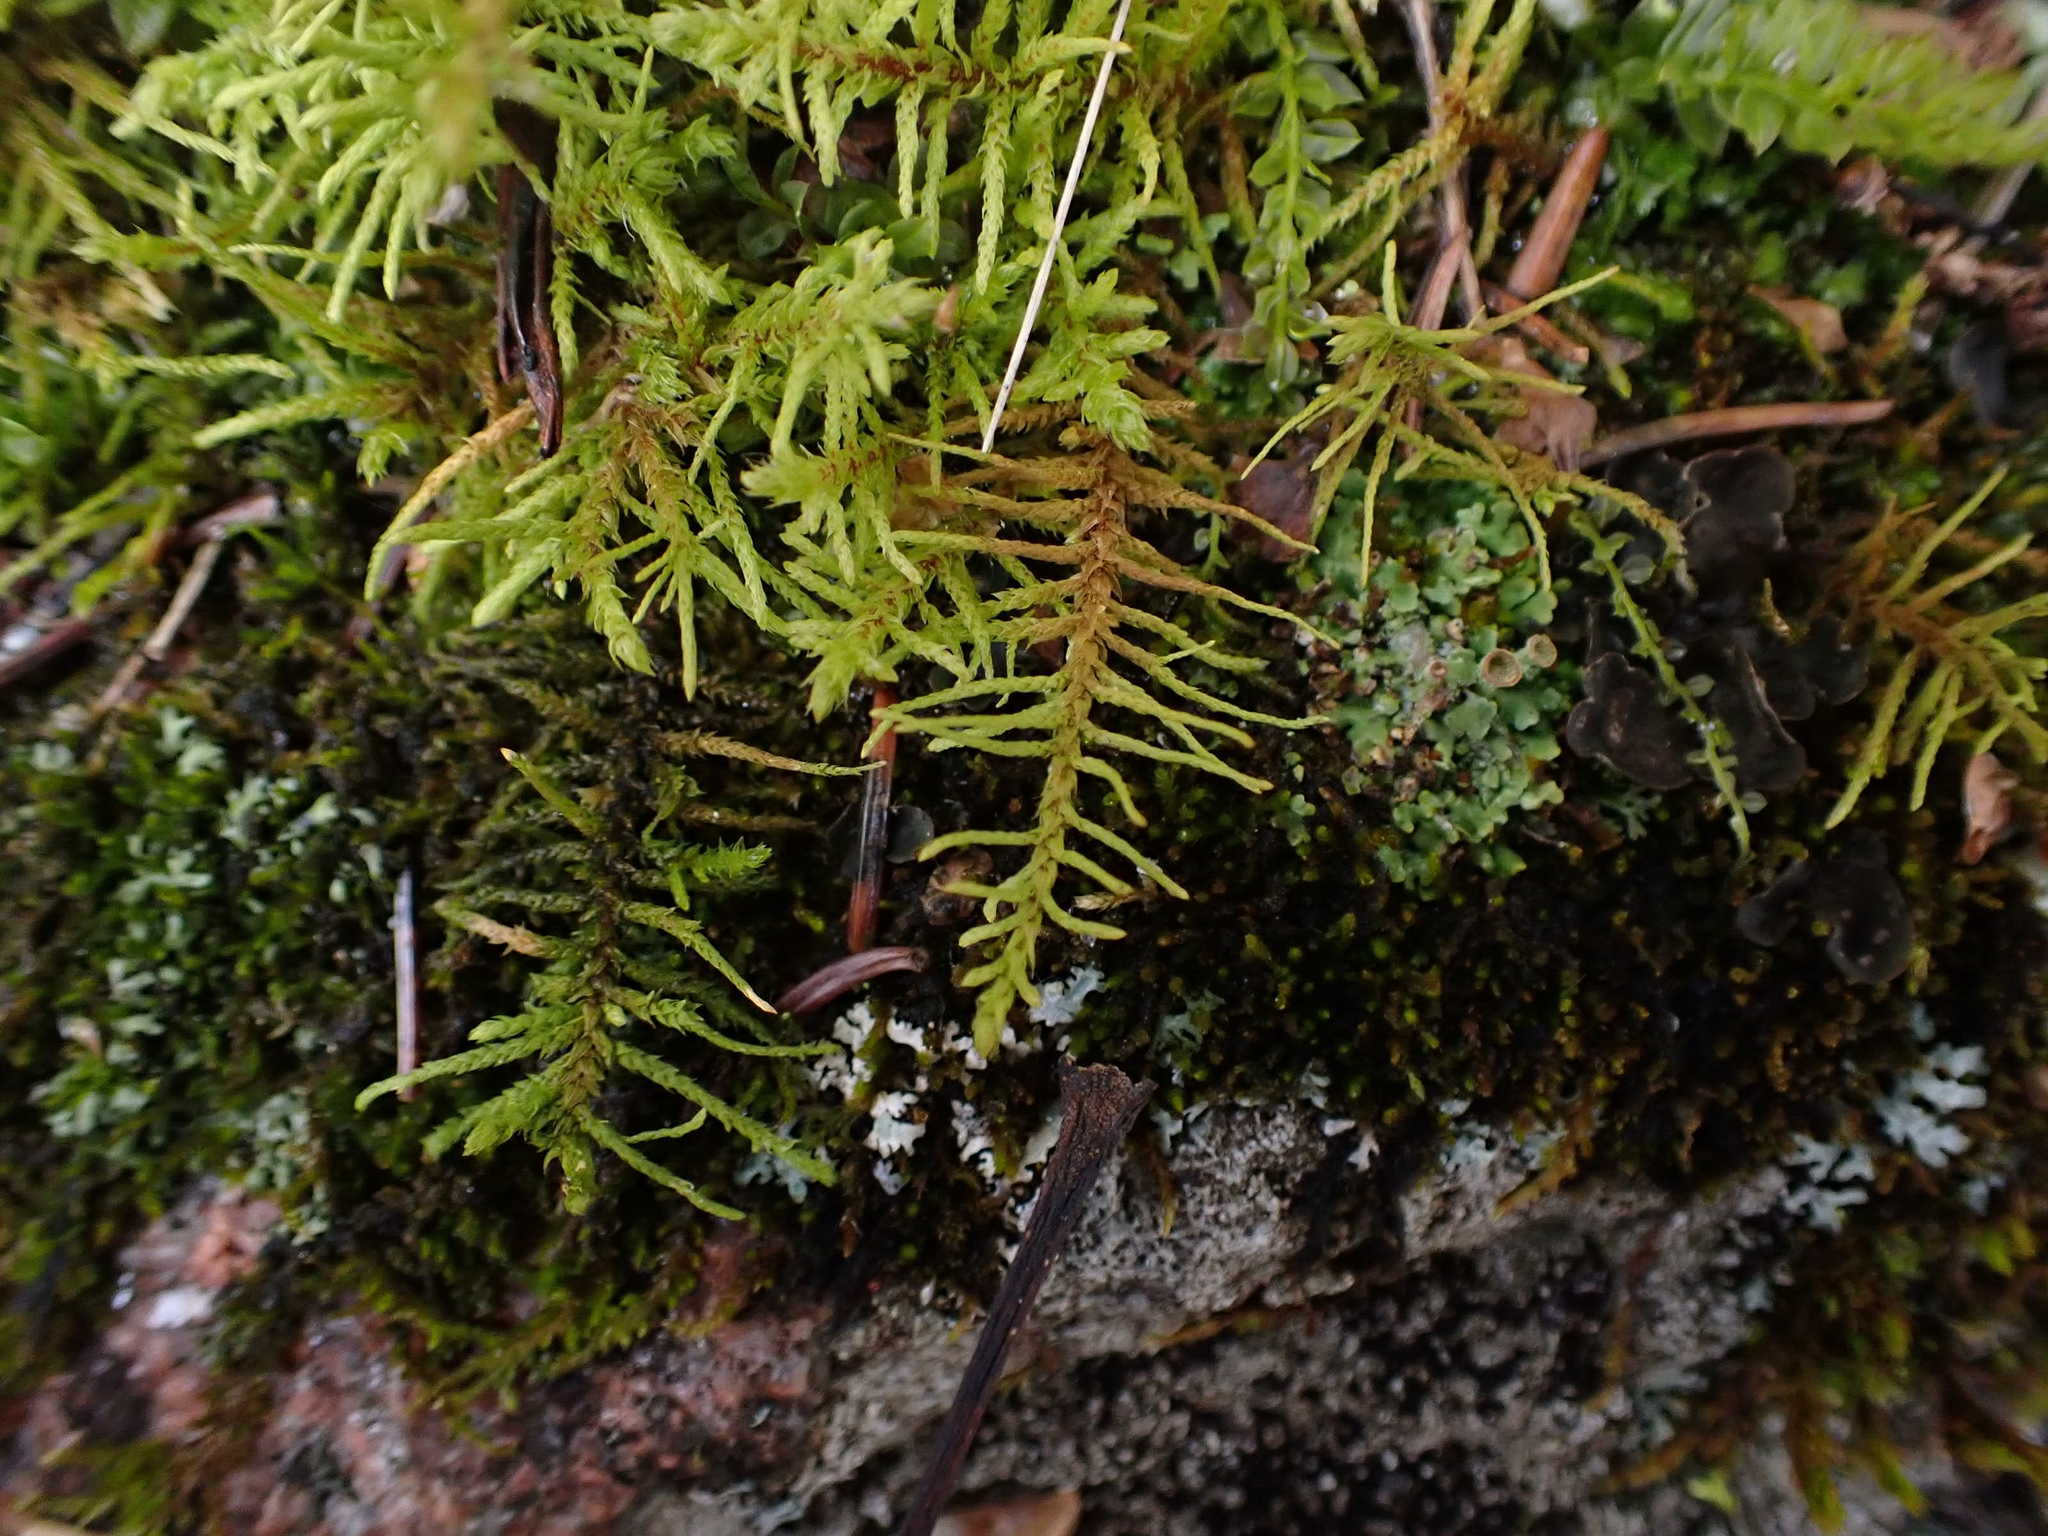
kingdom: Plantae
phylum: Bryophyta
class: Bryopsida
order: Hypnales
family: Thuidiaceae
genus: Abietinella
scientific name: Abietinella abietina
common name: Wiry fern moss
